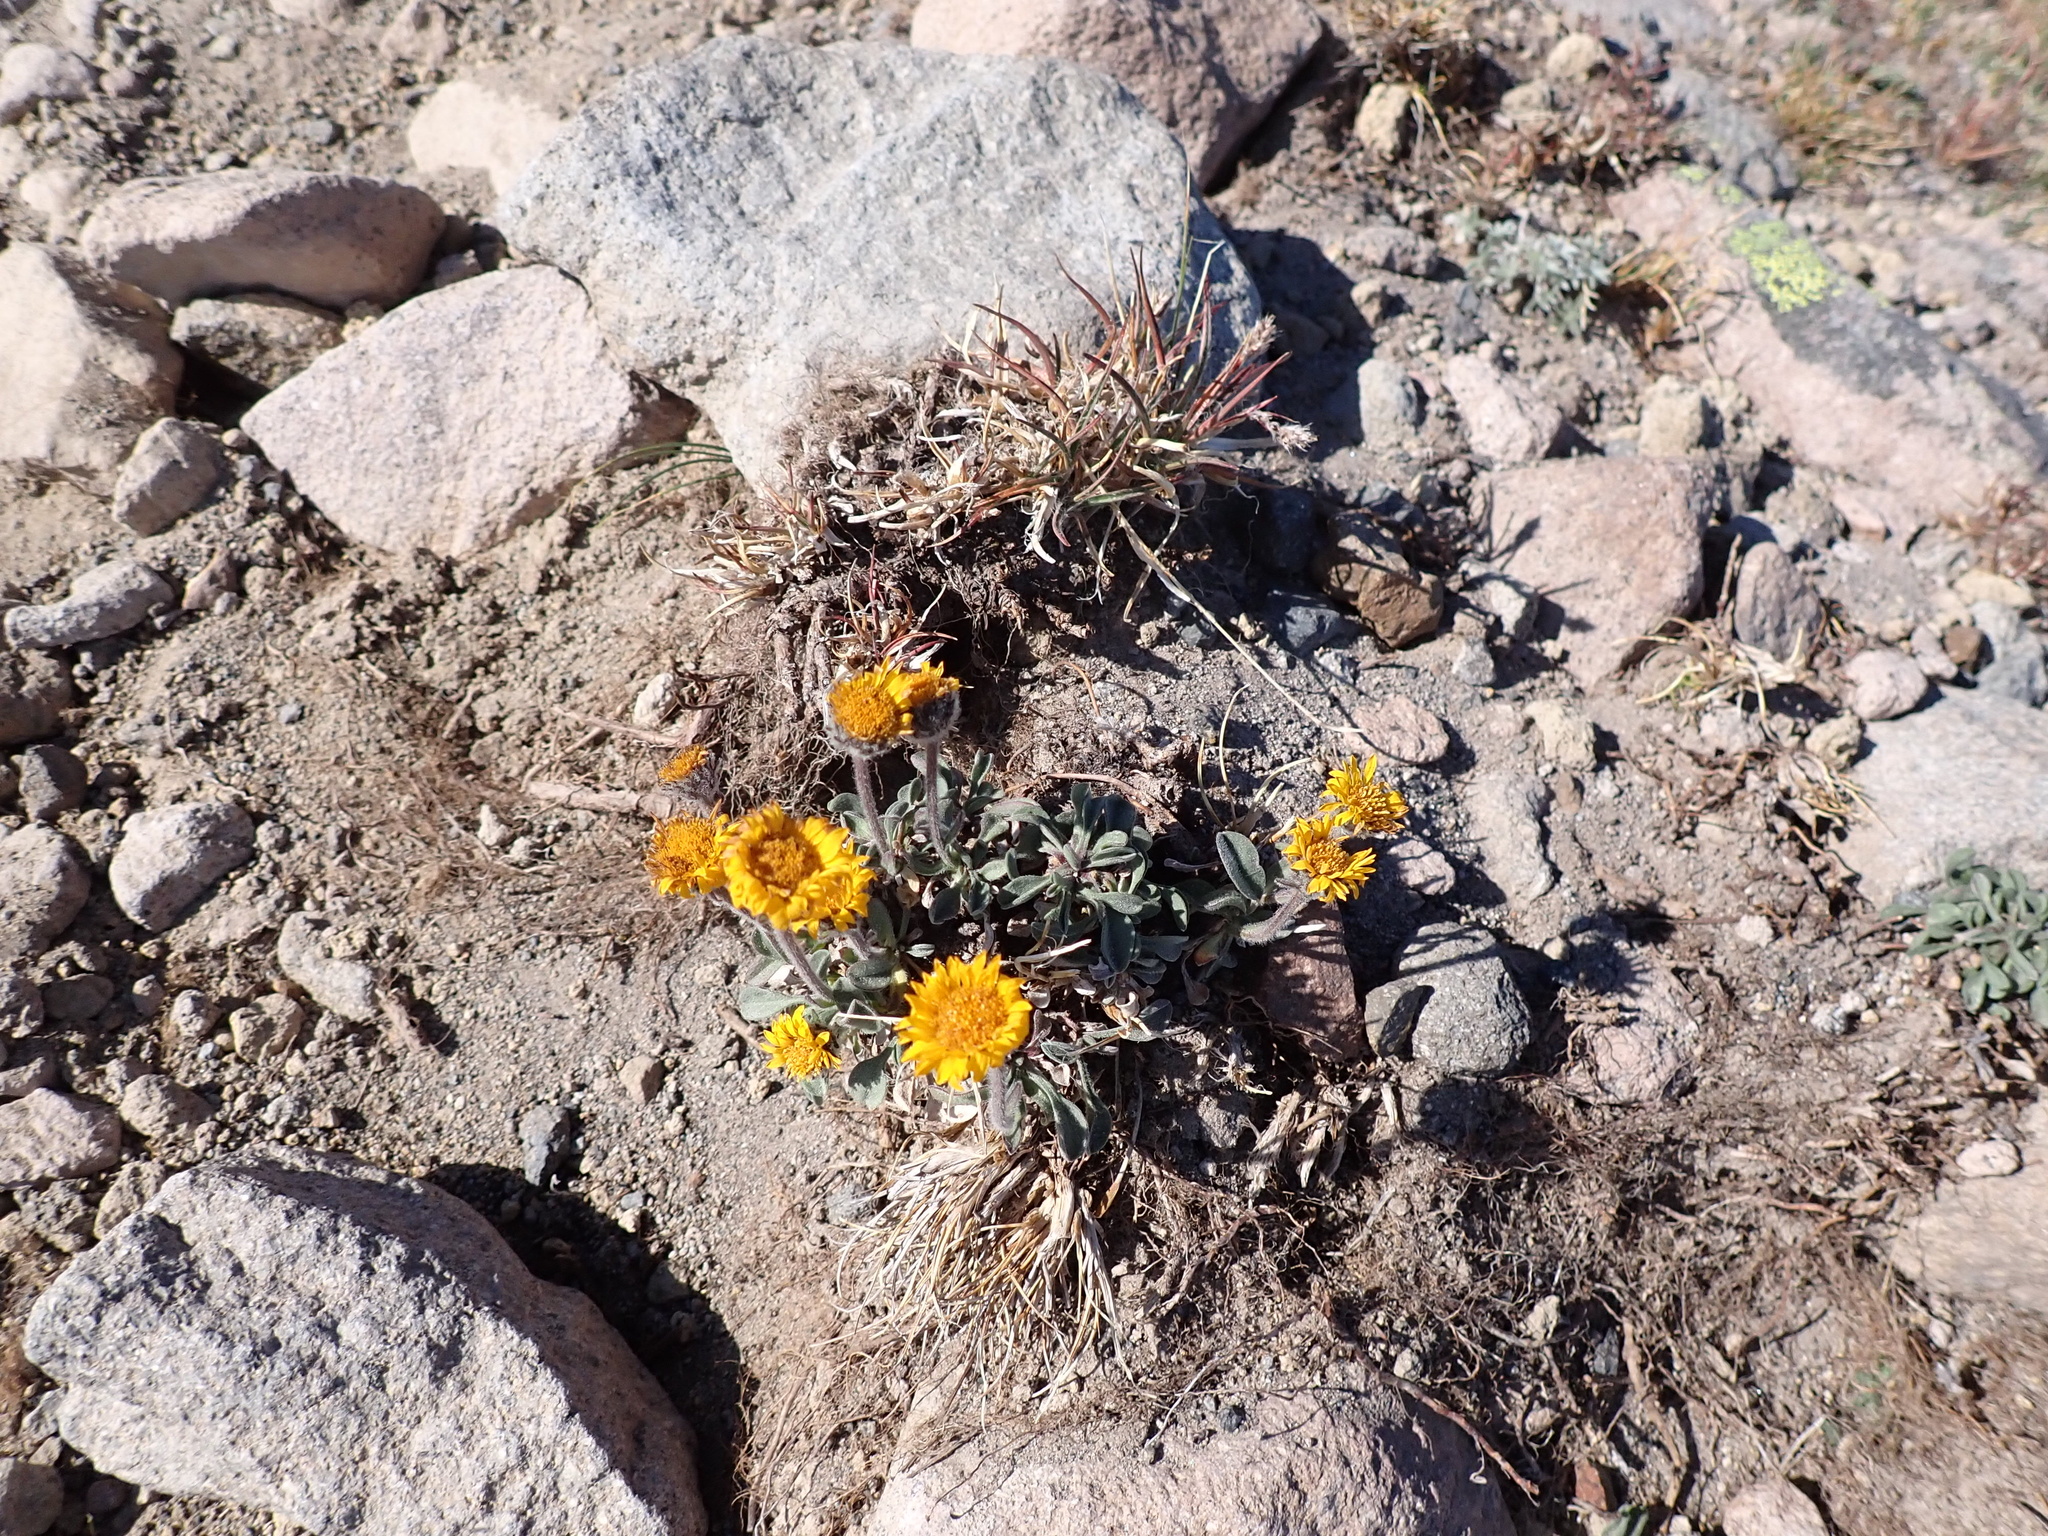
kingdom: Plantae
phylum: Tracheophyta
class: Magnoliopsida
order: Asterales
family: Asteraceae
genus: Erigeron
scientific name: Erigeron aureus
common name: Alpine yellow fleabane
